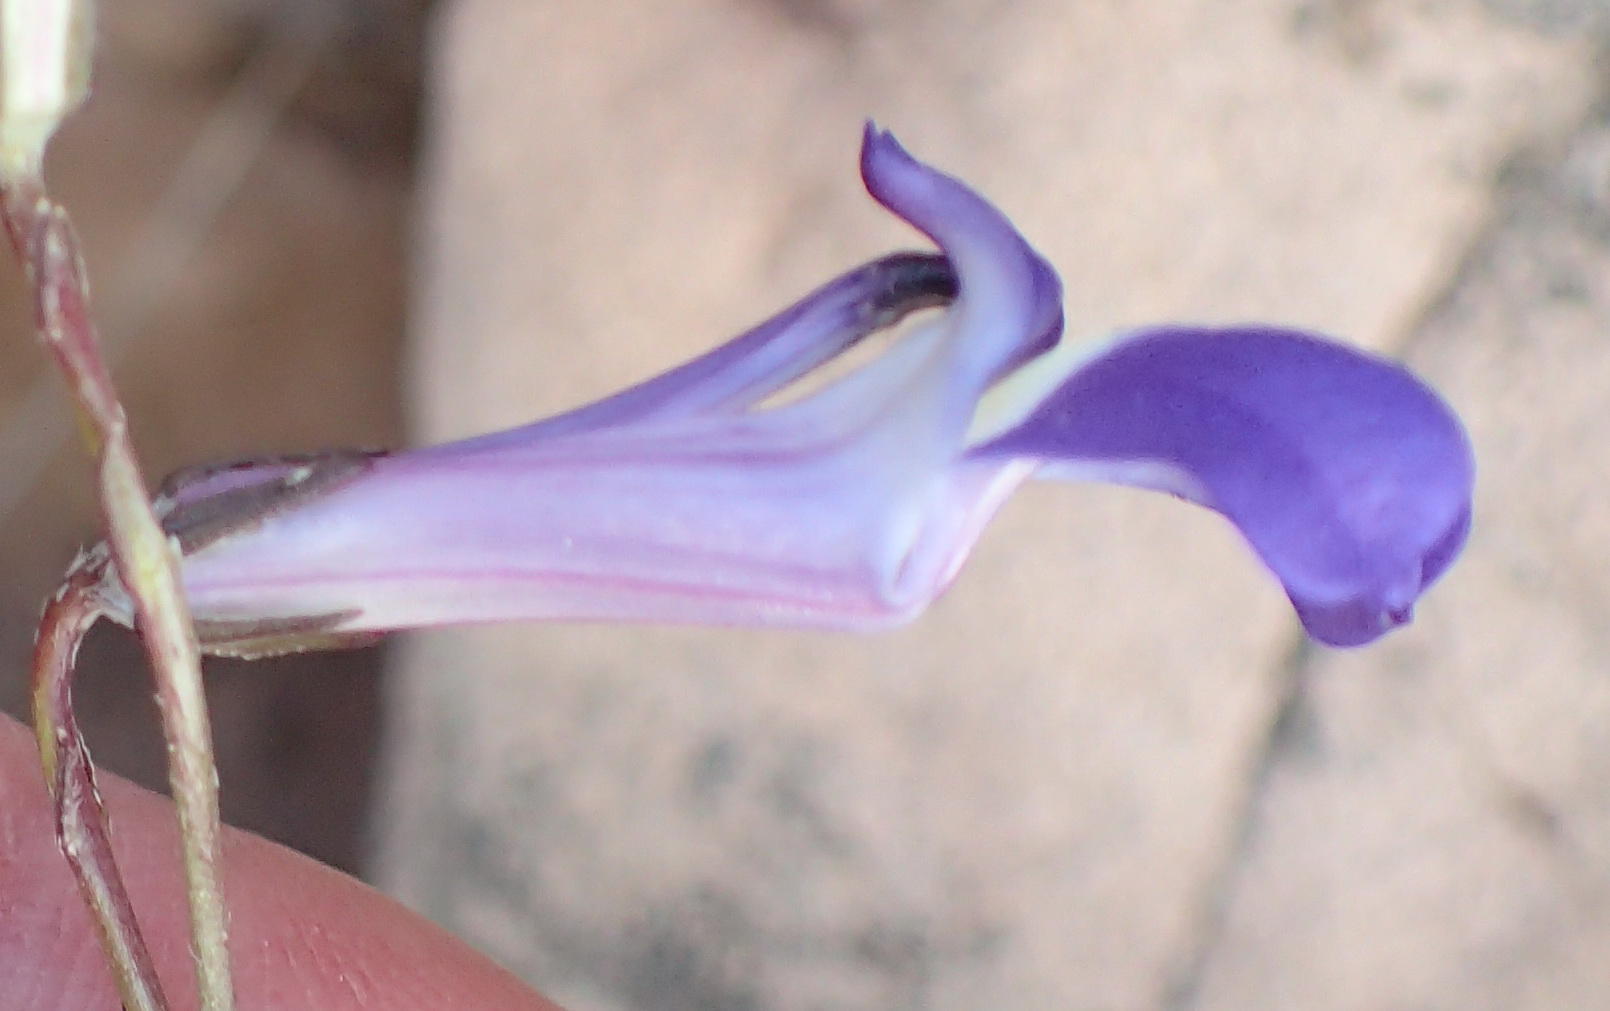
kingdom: Plantae
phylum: Tracheophyta
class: Magnoliopsida
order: Asterales
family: Campanulaceae
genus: Lobelia
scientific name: Lobelia coronopifolia
